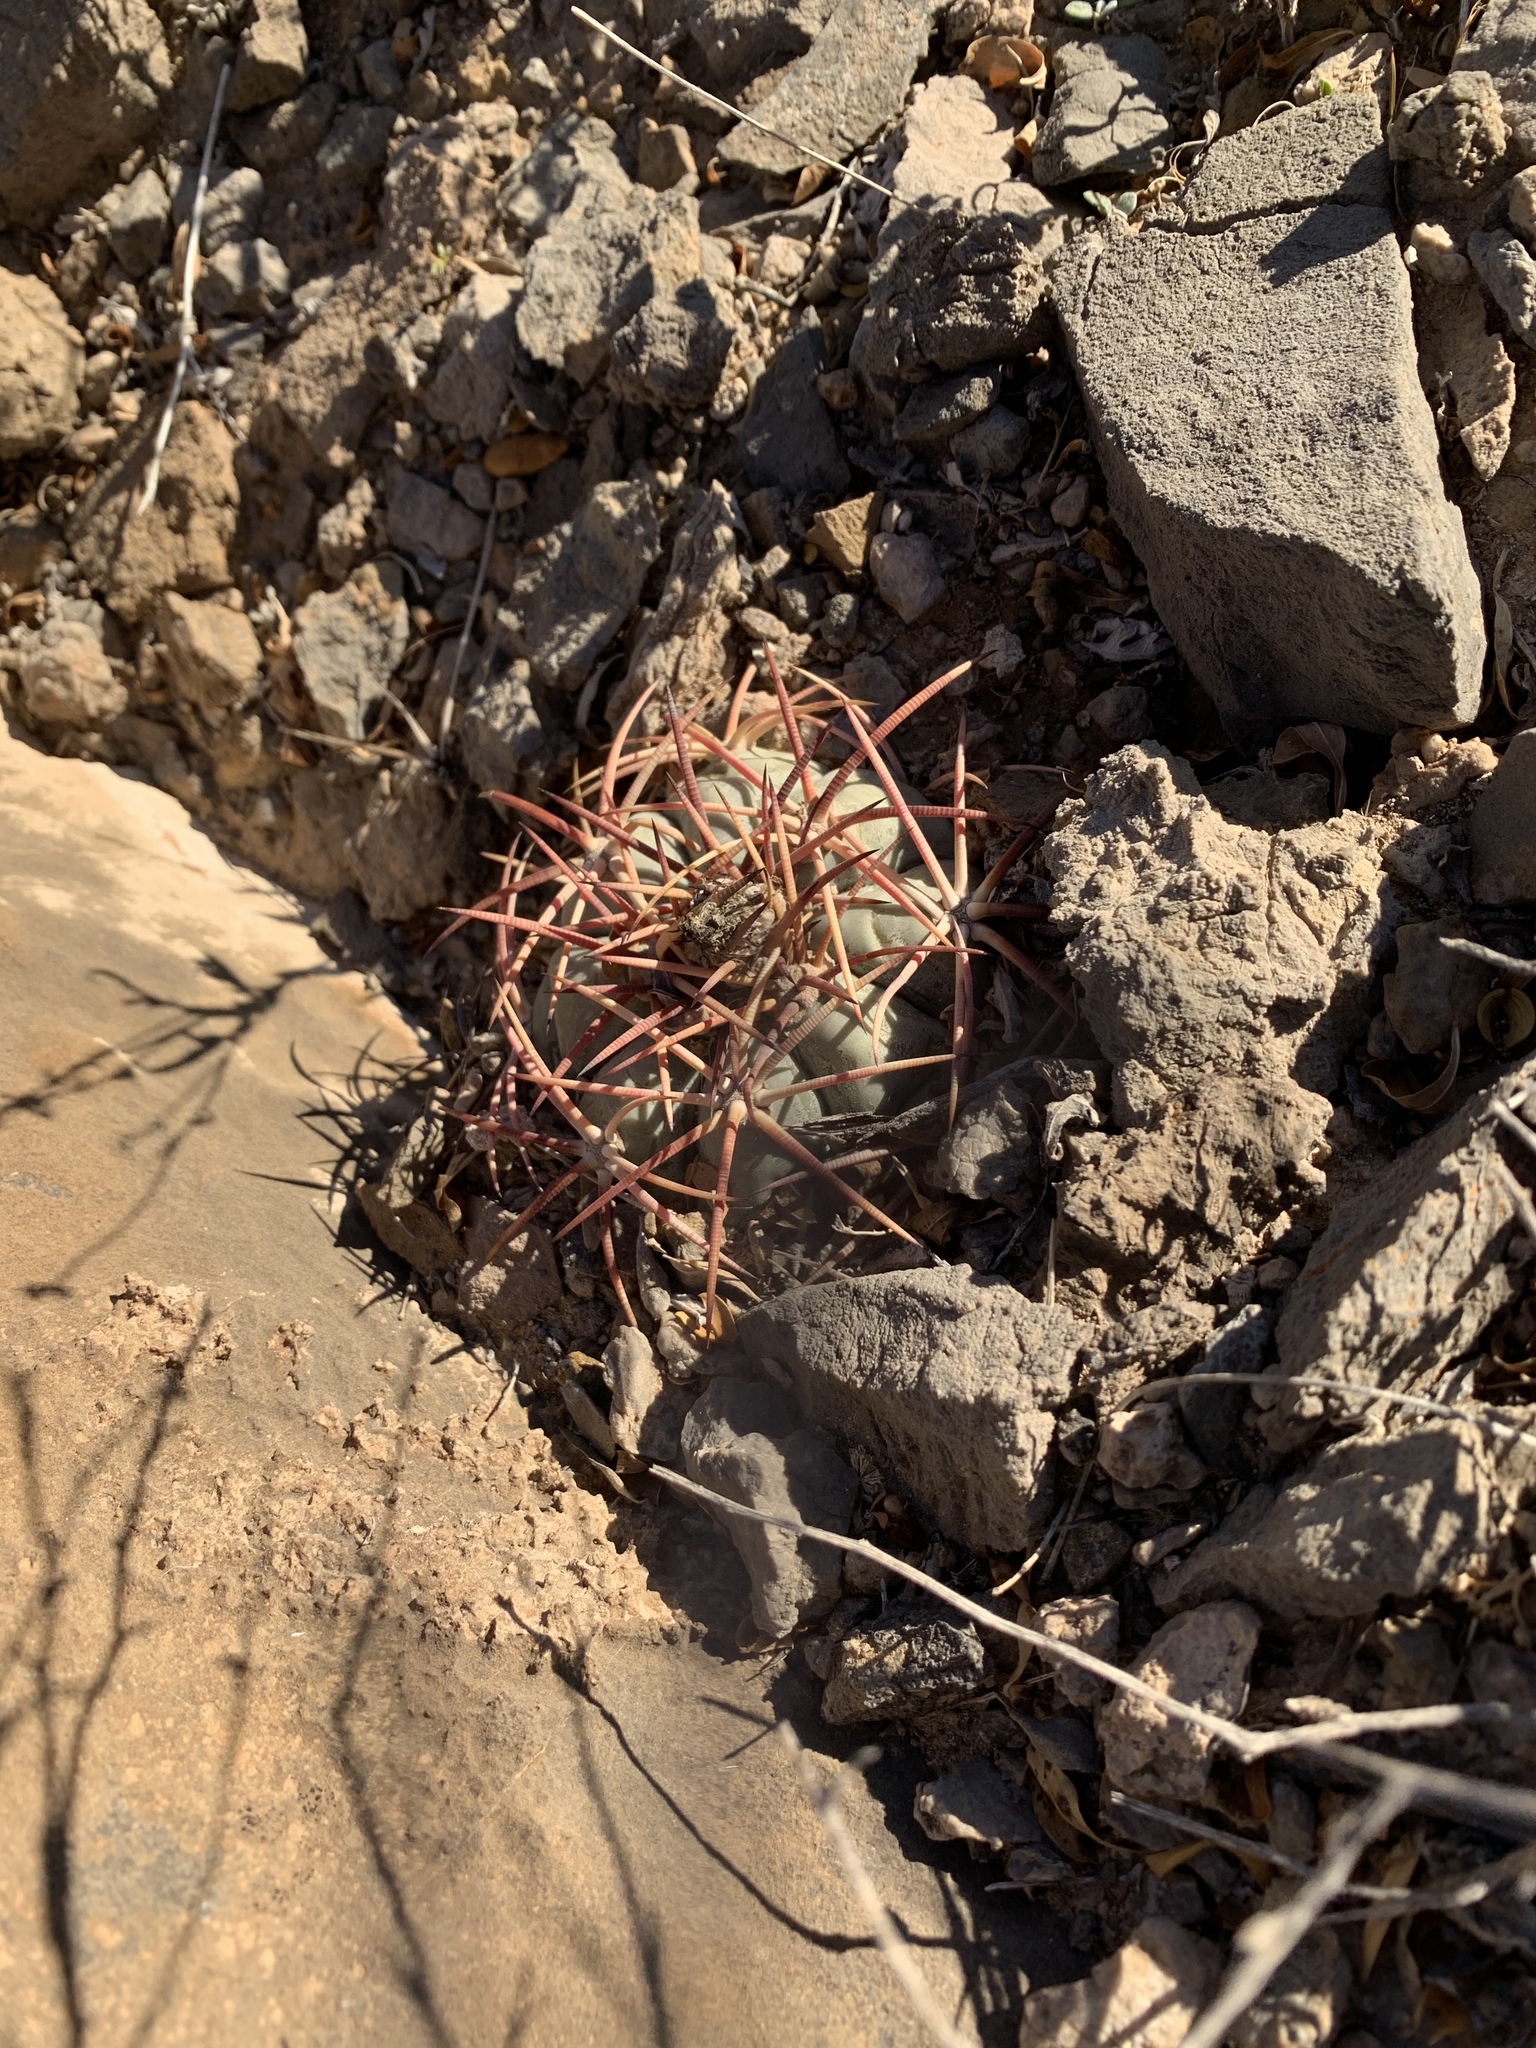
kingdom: Plantae
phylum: Tracheophyta
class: Magnoliopsida
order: Caryophyllales
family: Cactaceae
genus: Echinocactus
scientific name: Echinocactus horizonthalonius
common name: Devilshead
